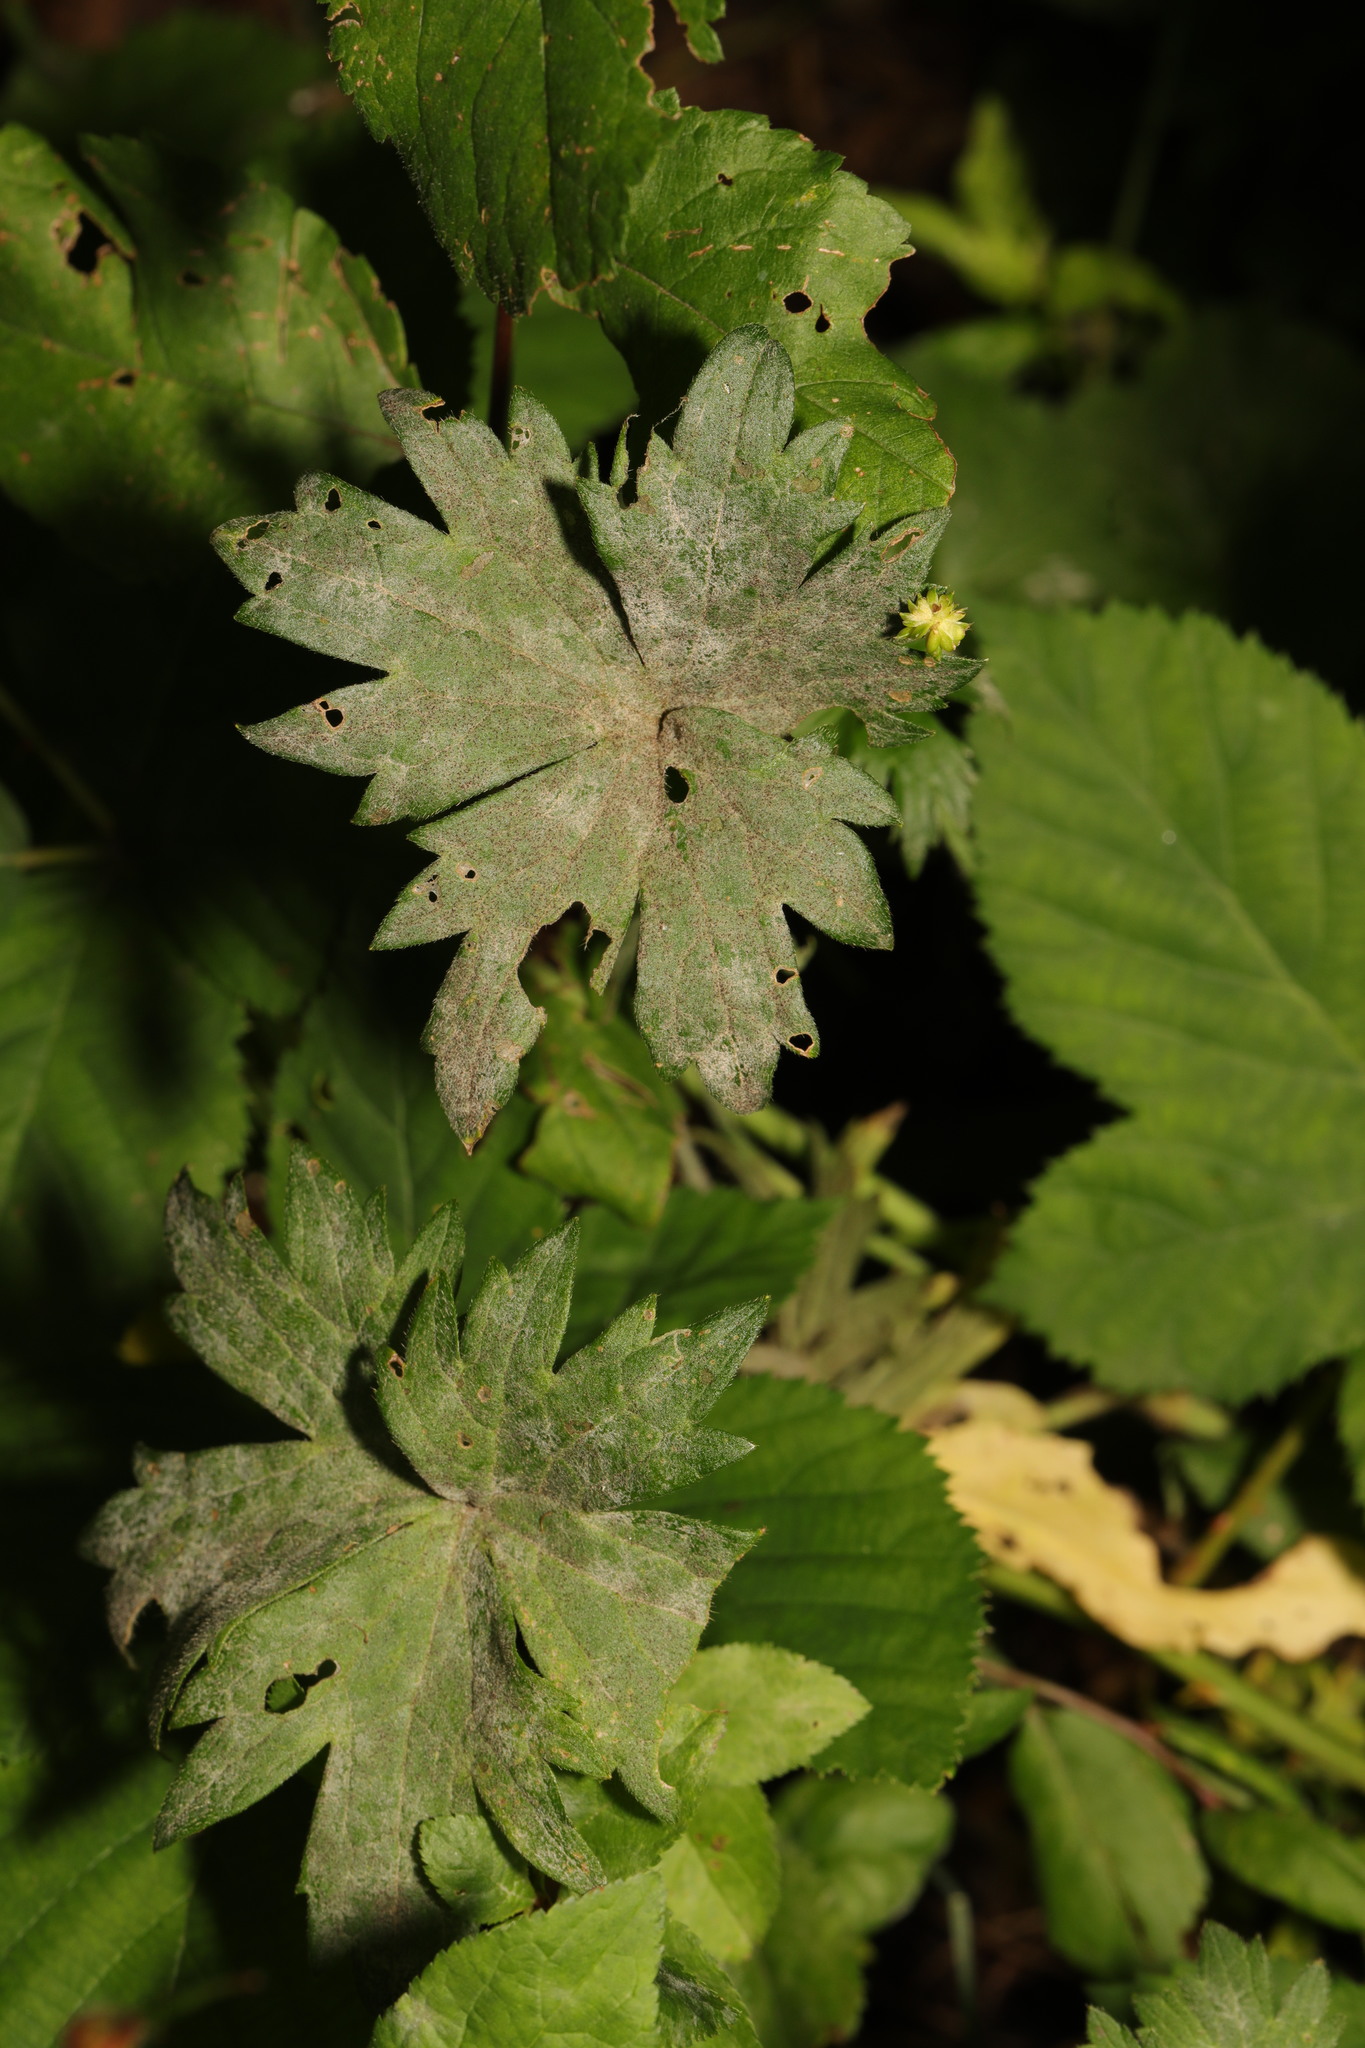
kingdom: Fungi
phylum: Ascomycota
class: Leotiomycetes
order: Helotiales
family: Erysiphaceae
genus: Erysiphe
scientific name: Erysiphe aquilegiae
